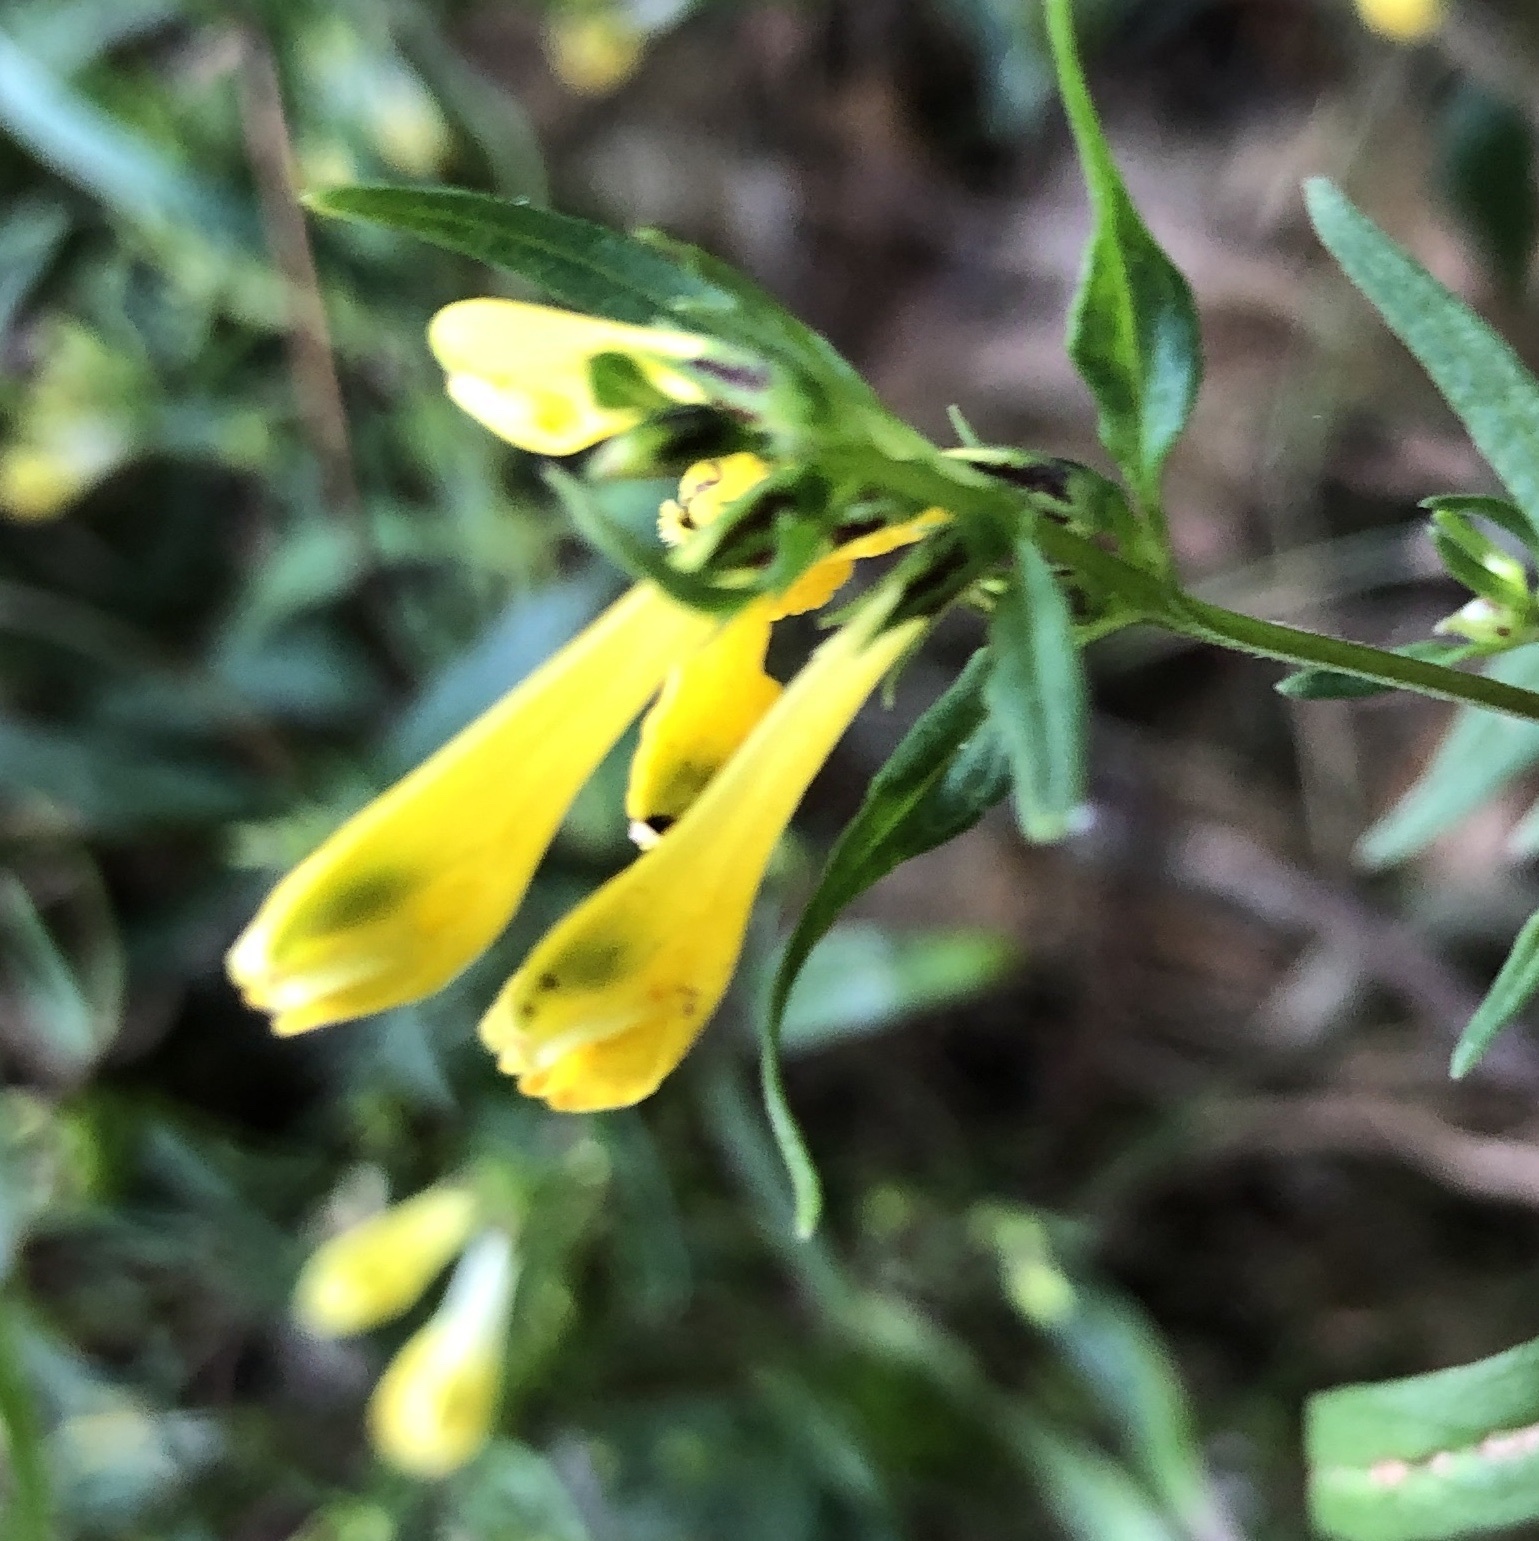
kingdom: Plantae
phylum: Tracheophyta
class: Magnoliopsida
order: Lamiales
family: Orobanchaceae
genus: Melampyrum
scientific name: Melampyrum pratense
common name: Common cow-wheat
